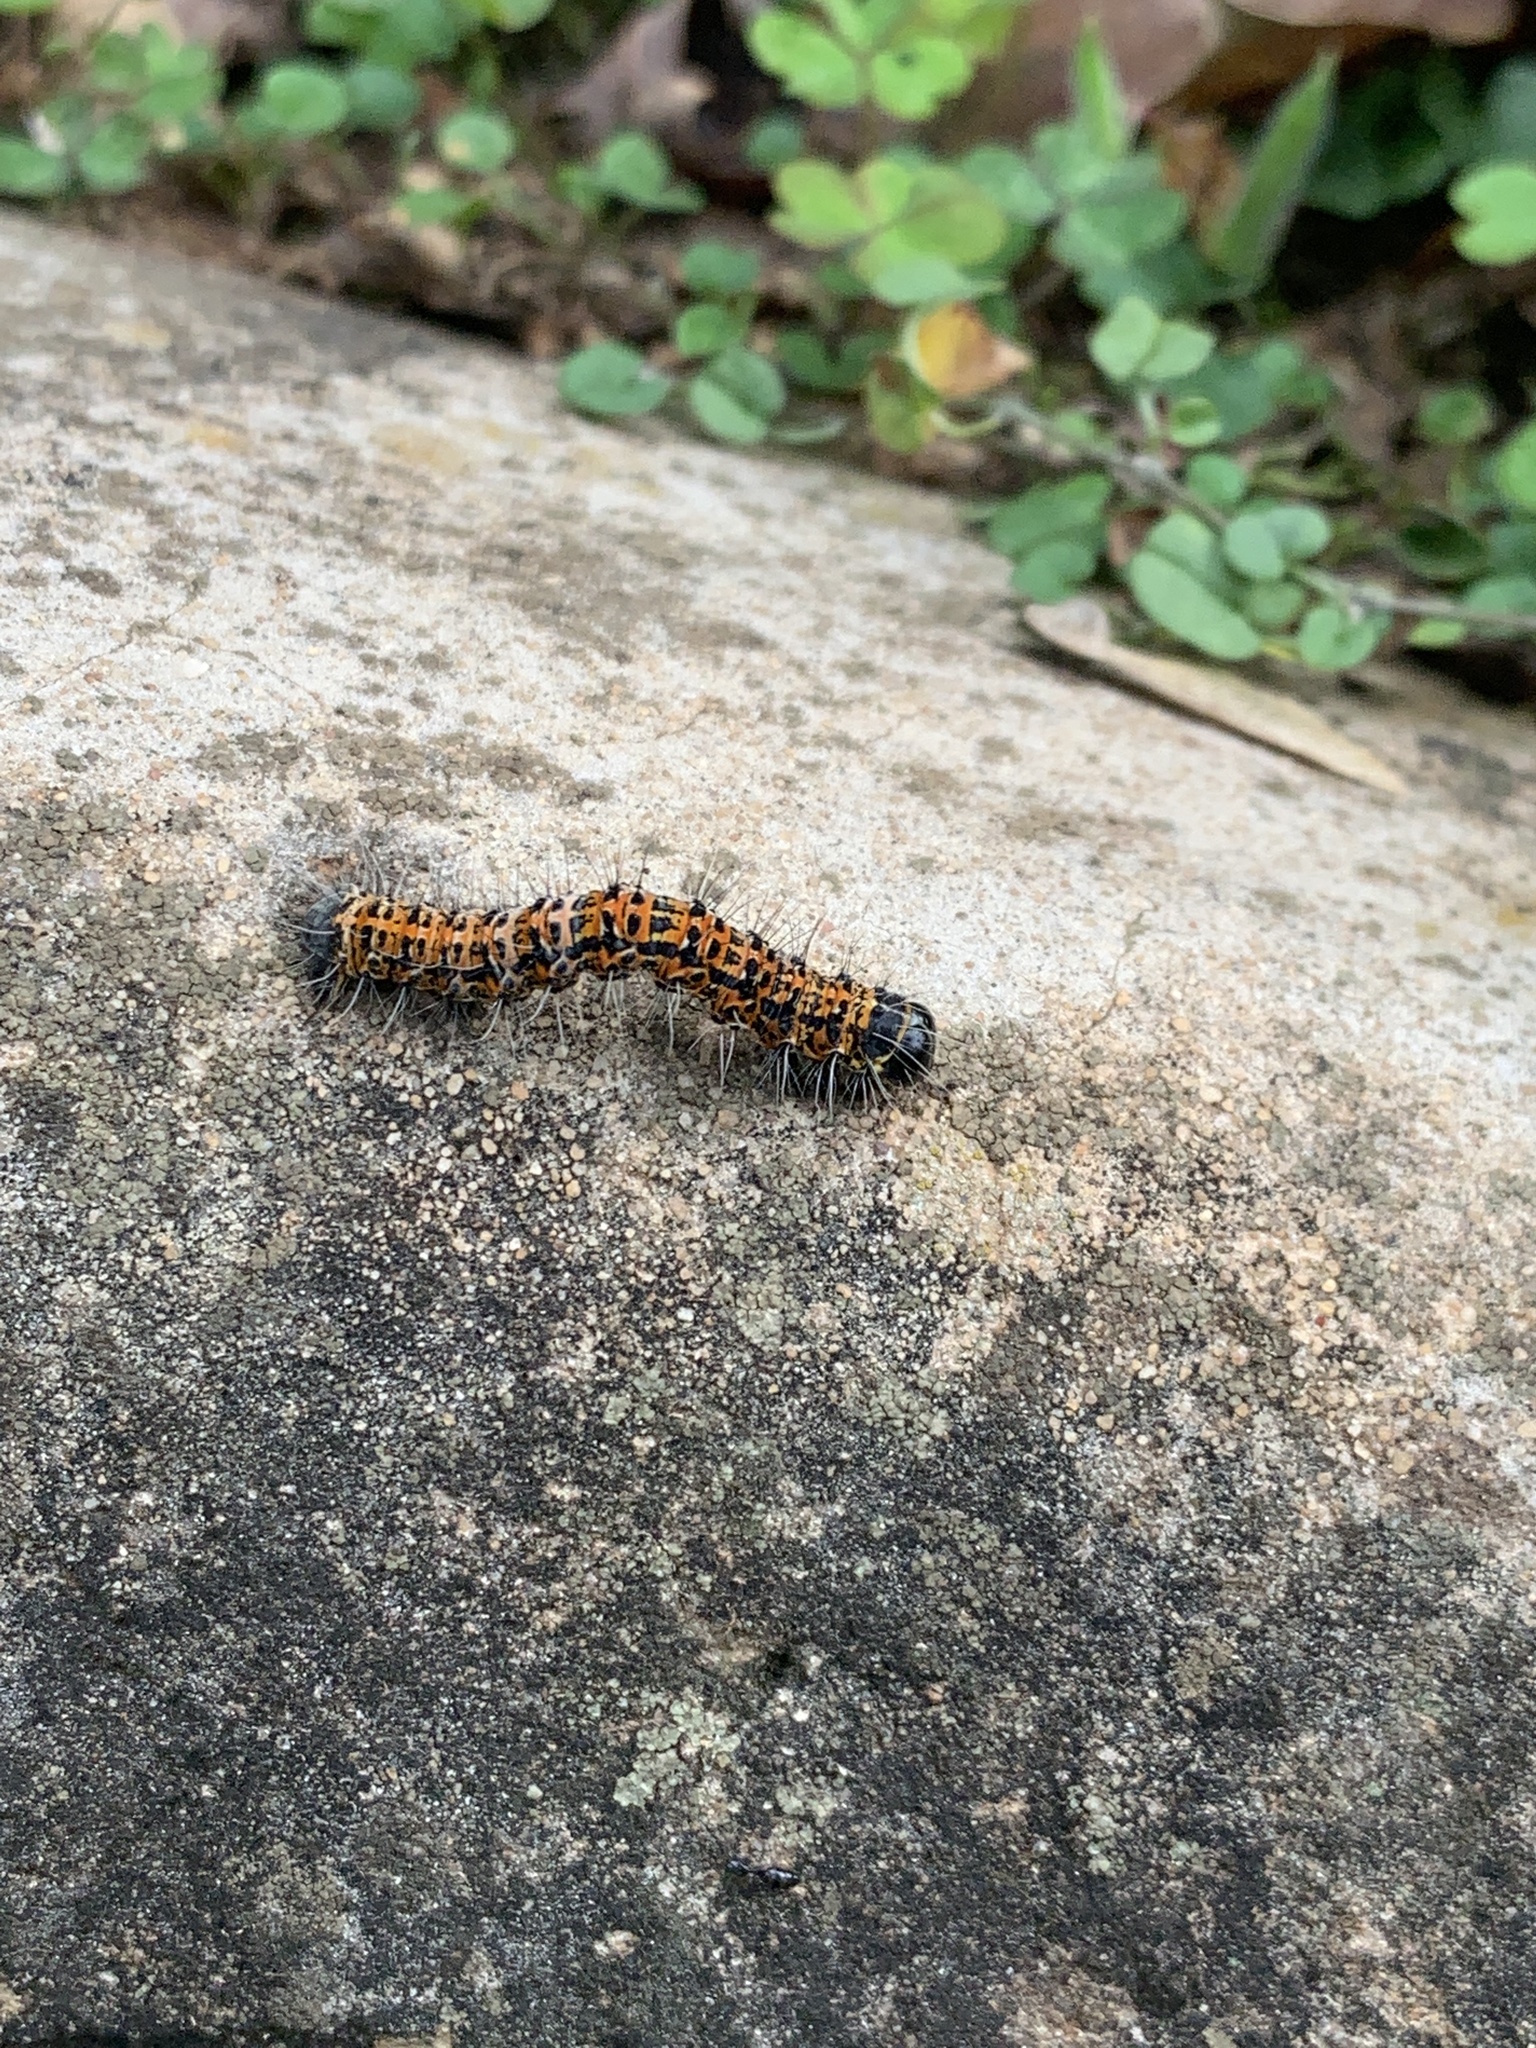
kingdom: Animalia
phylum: Arthropoda
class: Insecta
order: Lepidoptera
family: Geometridae
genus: Zerenopsis
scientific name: Zerenopsis lepida
